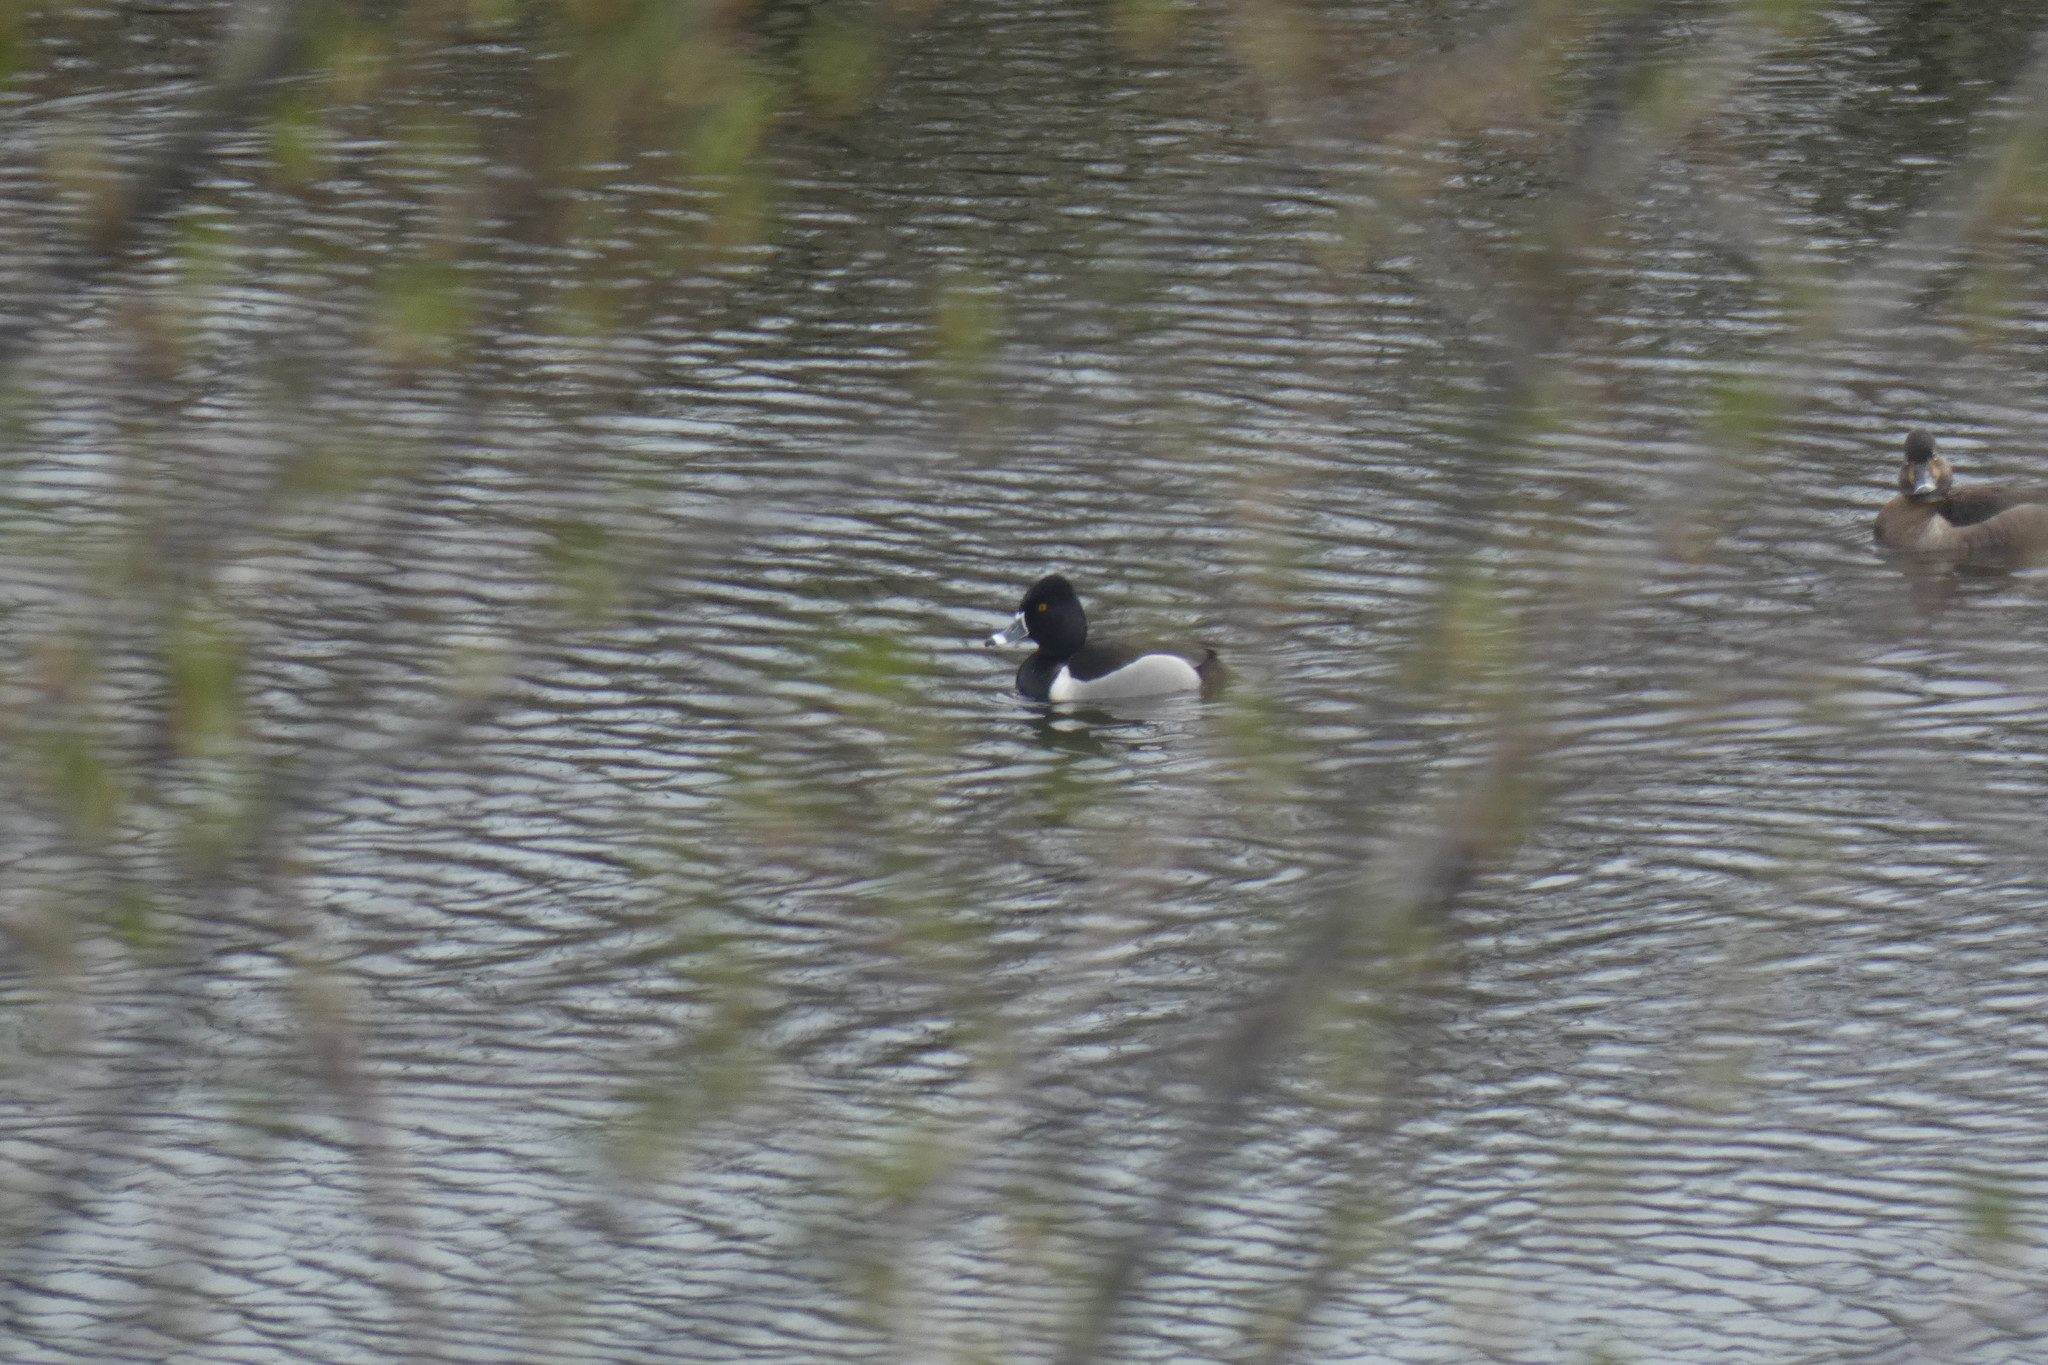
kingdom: Animalia
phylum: Chordata
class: Aves
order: Anseriformes
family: Anatidae
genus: Aythya
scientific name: Aythya collaris
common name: Ring-necked duck
